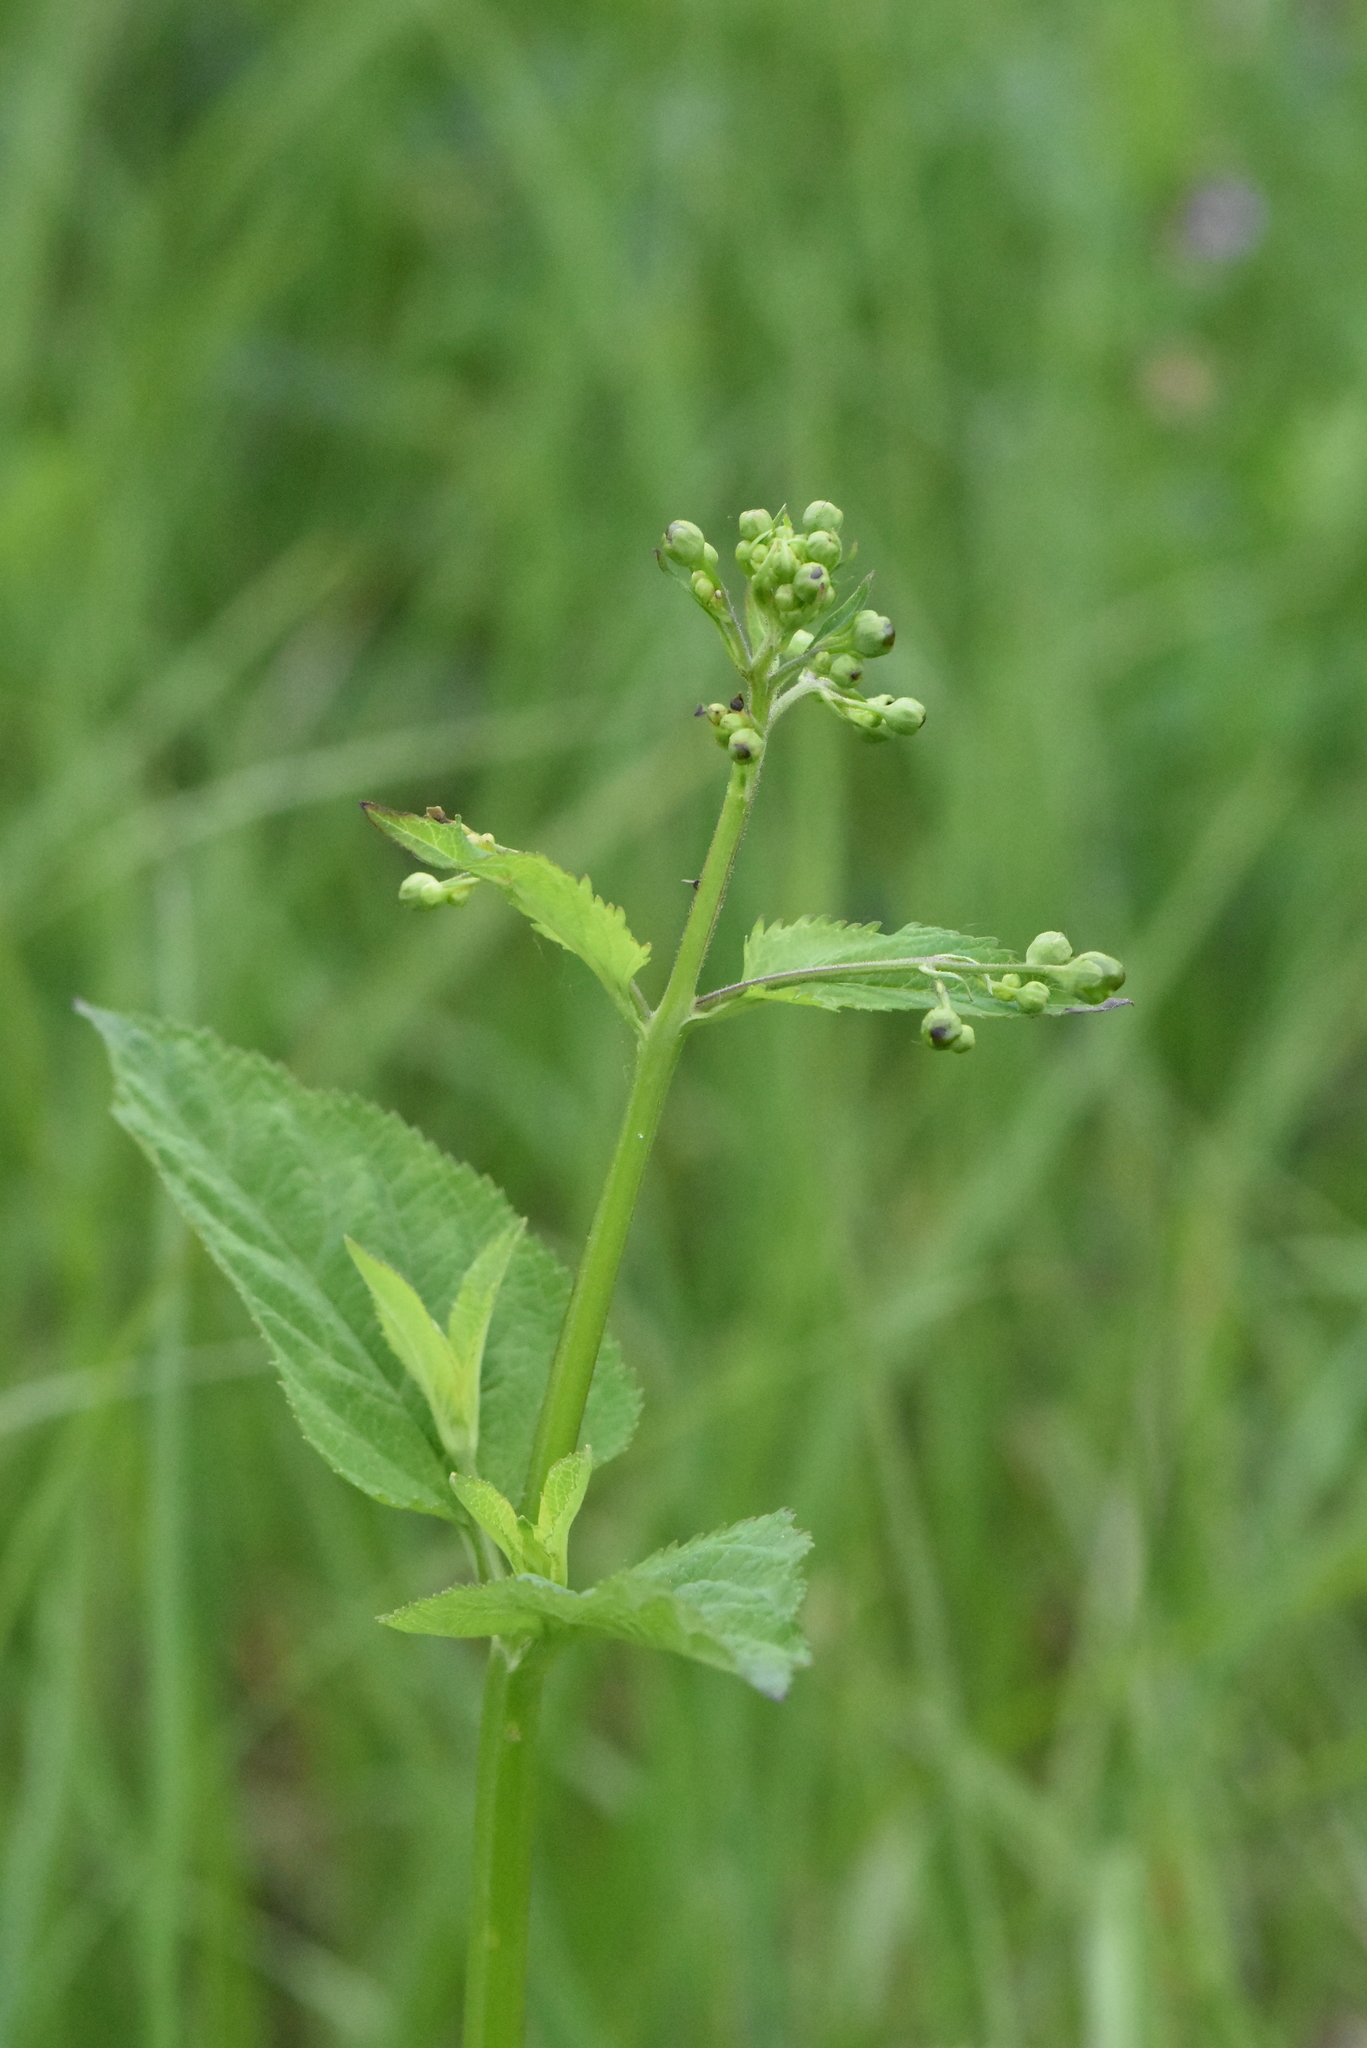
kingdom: Plantae
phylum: Tracheophyta
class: Magnoliopsida
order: Lamiales
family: Scrophulariaceae
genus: Scrophularia
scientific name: Scrophularia nodosa
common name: Common figwort
